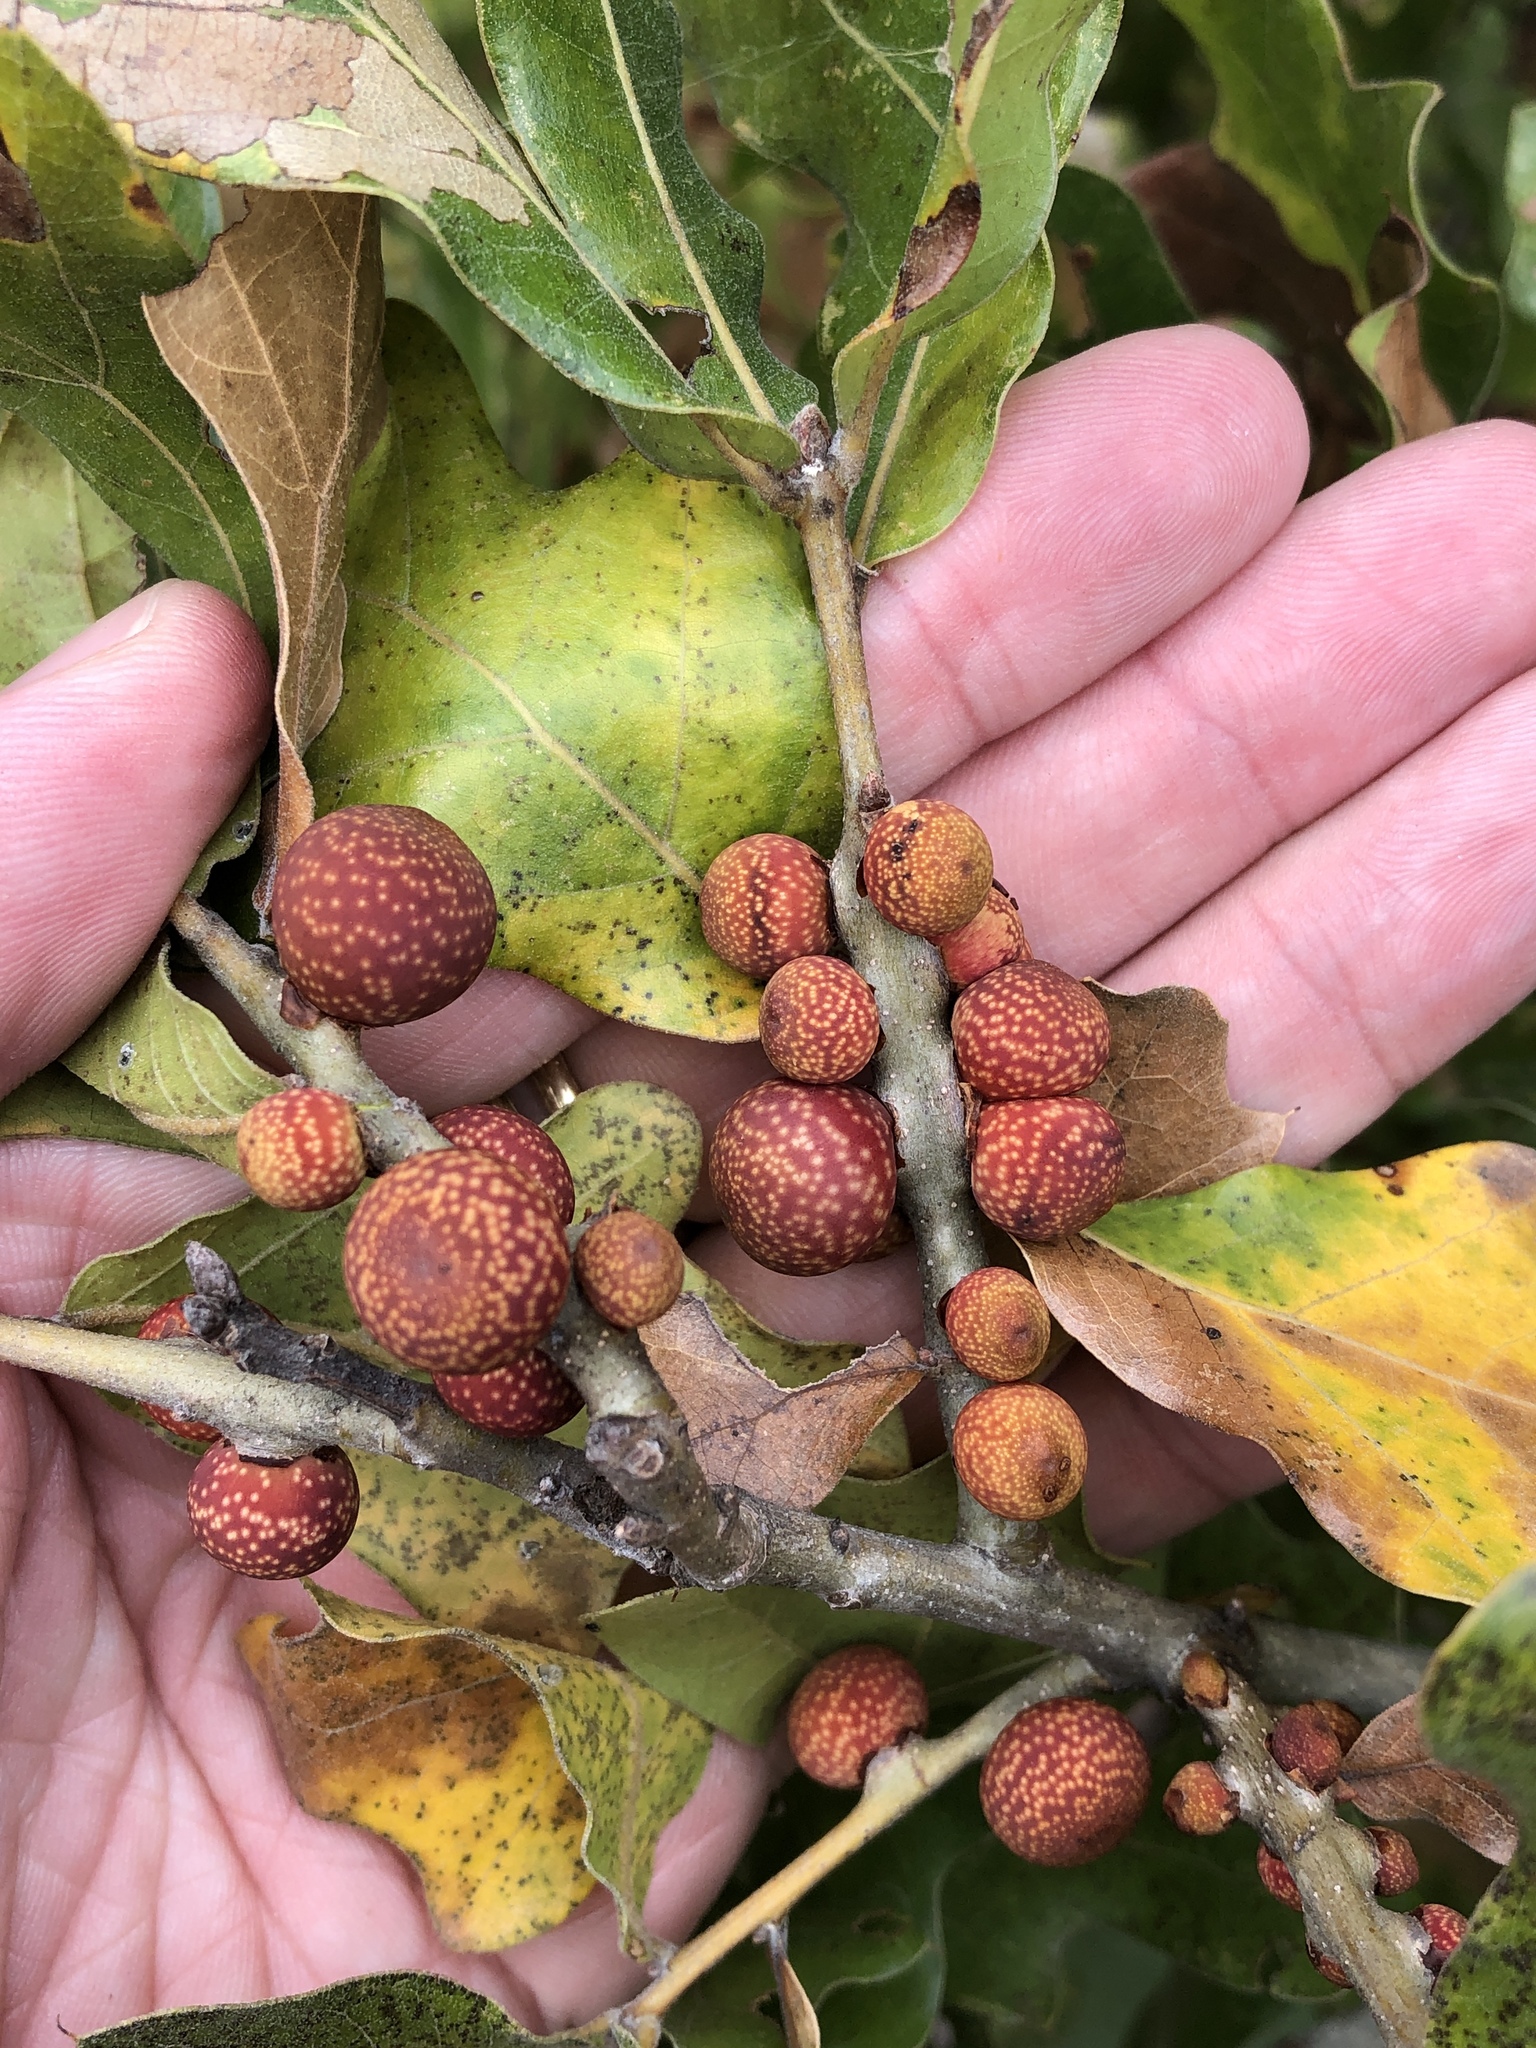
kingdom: Animalia
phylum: Arthropoda
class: Insecta
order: Hymenoptera
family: Cynipidae
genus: Kokkocynips
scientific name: Kokkocynips imbricariae
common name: Banded bullet gall wasp
